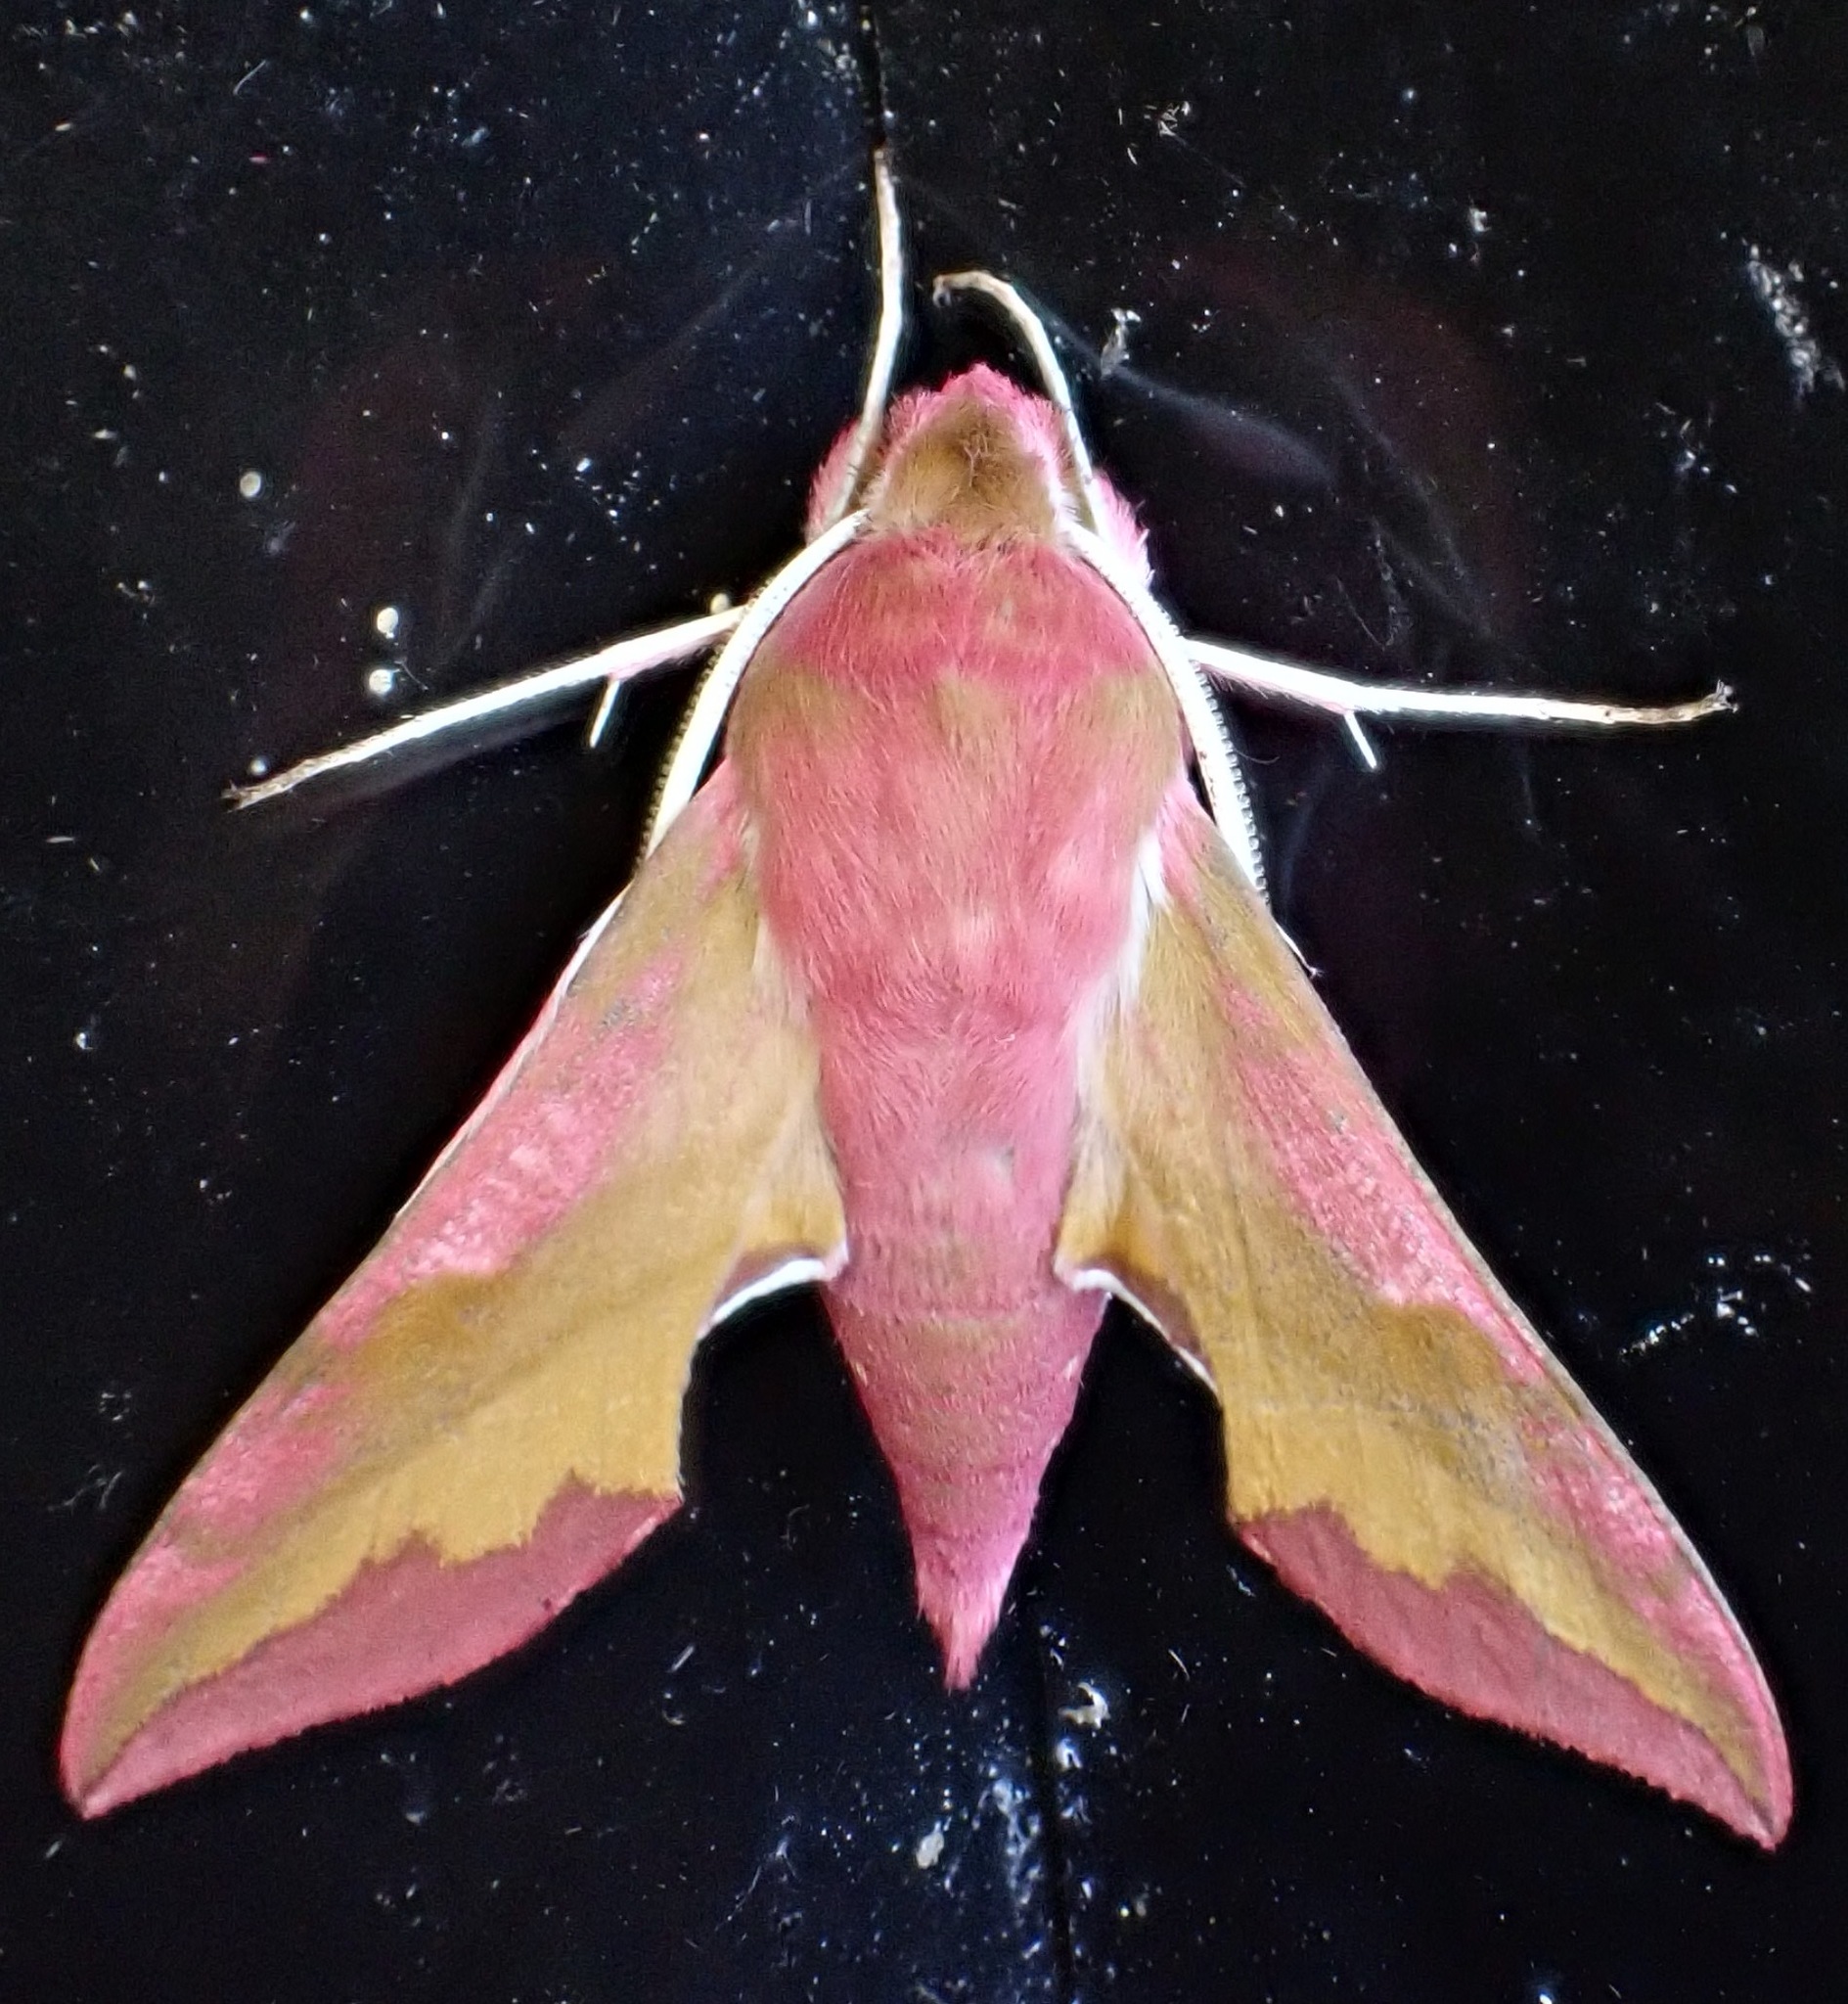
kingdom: Animalia
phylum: Arthropoda
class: Insecta
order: Lepidoptera
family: Sphingidae
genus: Deilephila
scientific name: Deilephila porcellus
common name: Small elephant hawk-moth
